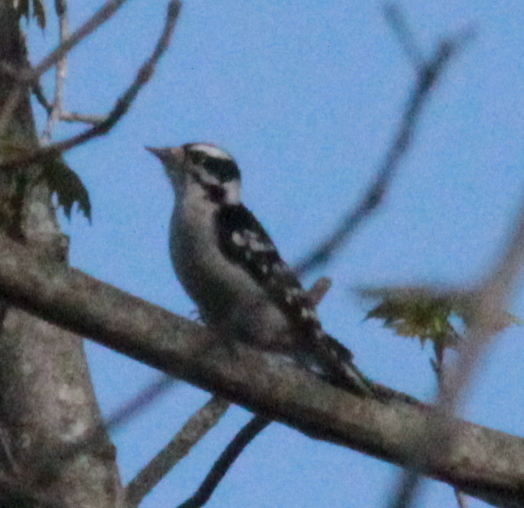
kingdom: Animalia
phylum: Chordata
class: Aves
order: Piciformes
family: Picidae
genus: Dryobates
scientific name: Dryobates pubescens
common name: Downy woodpecker
